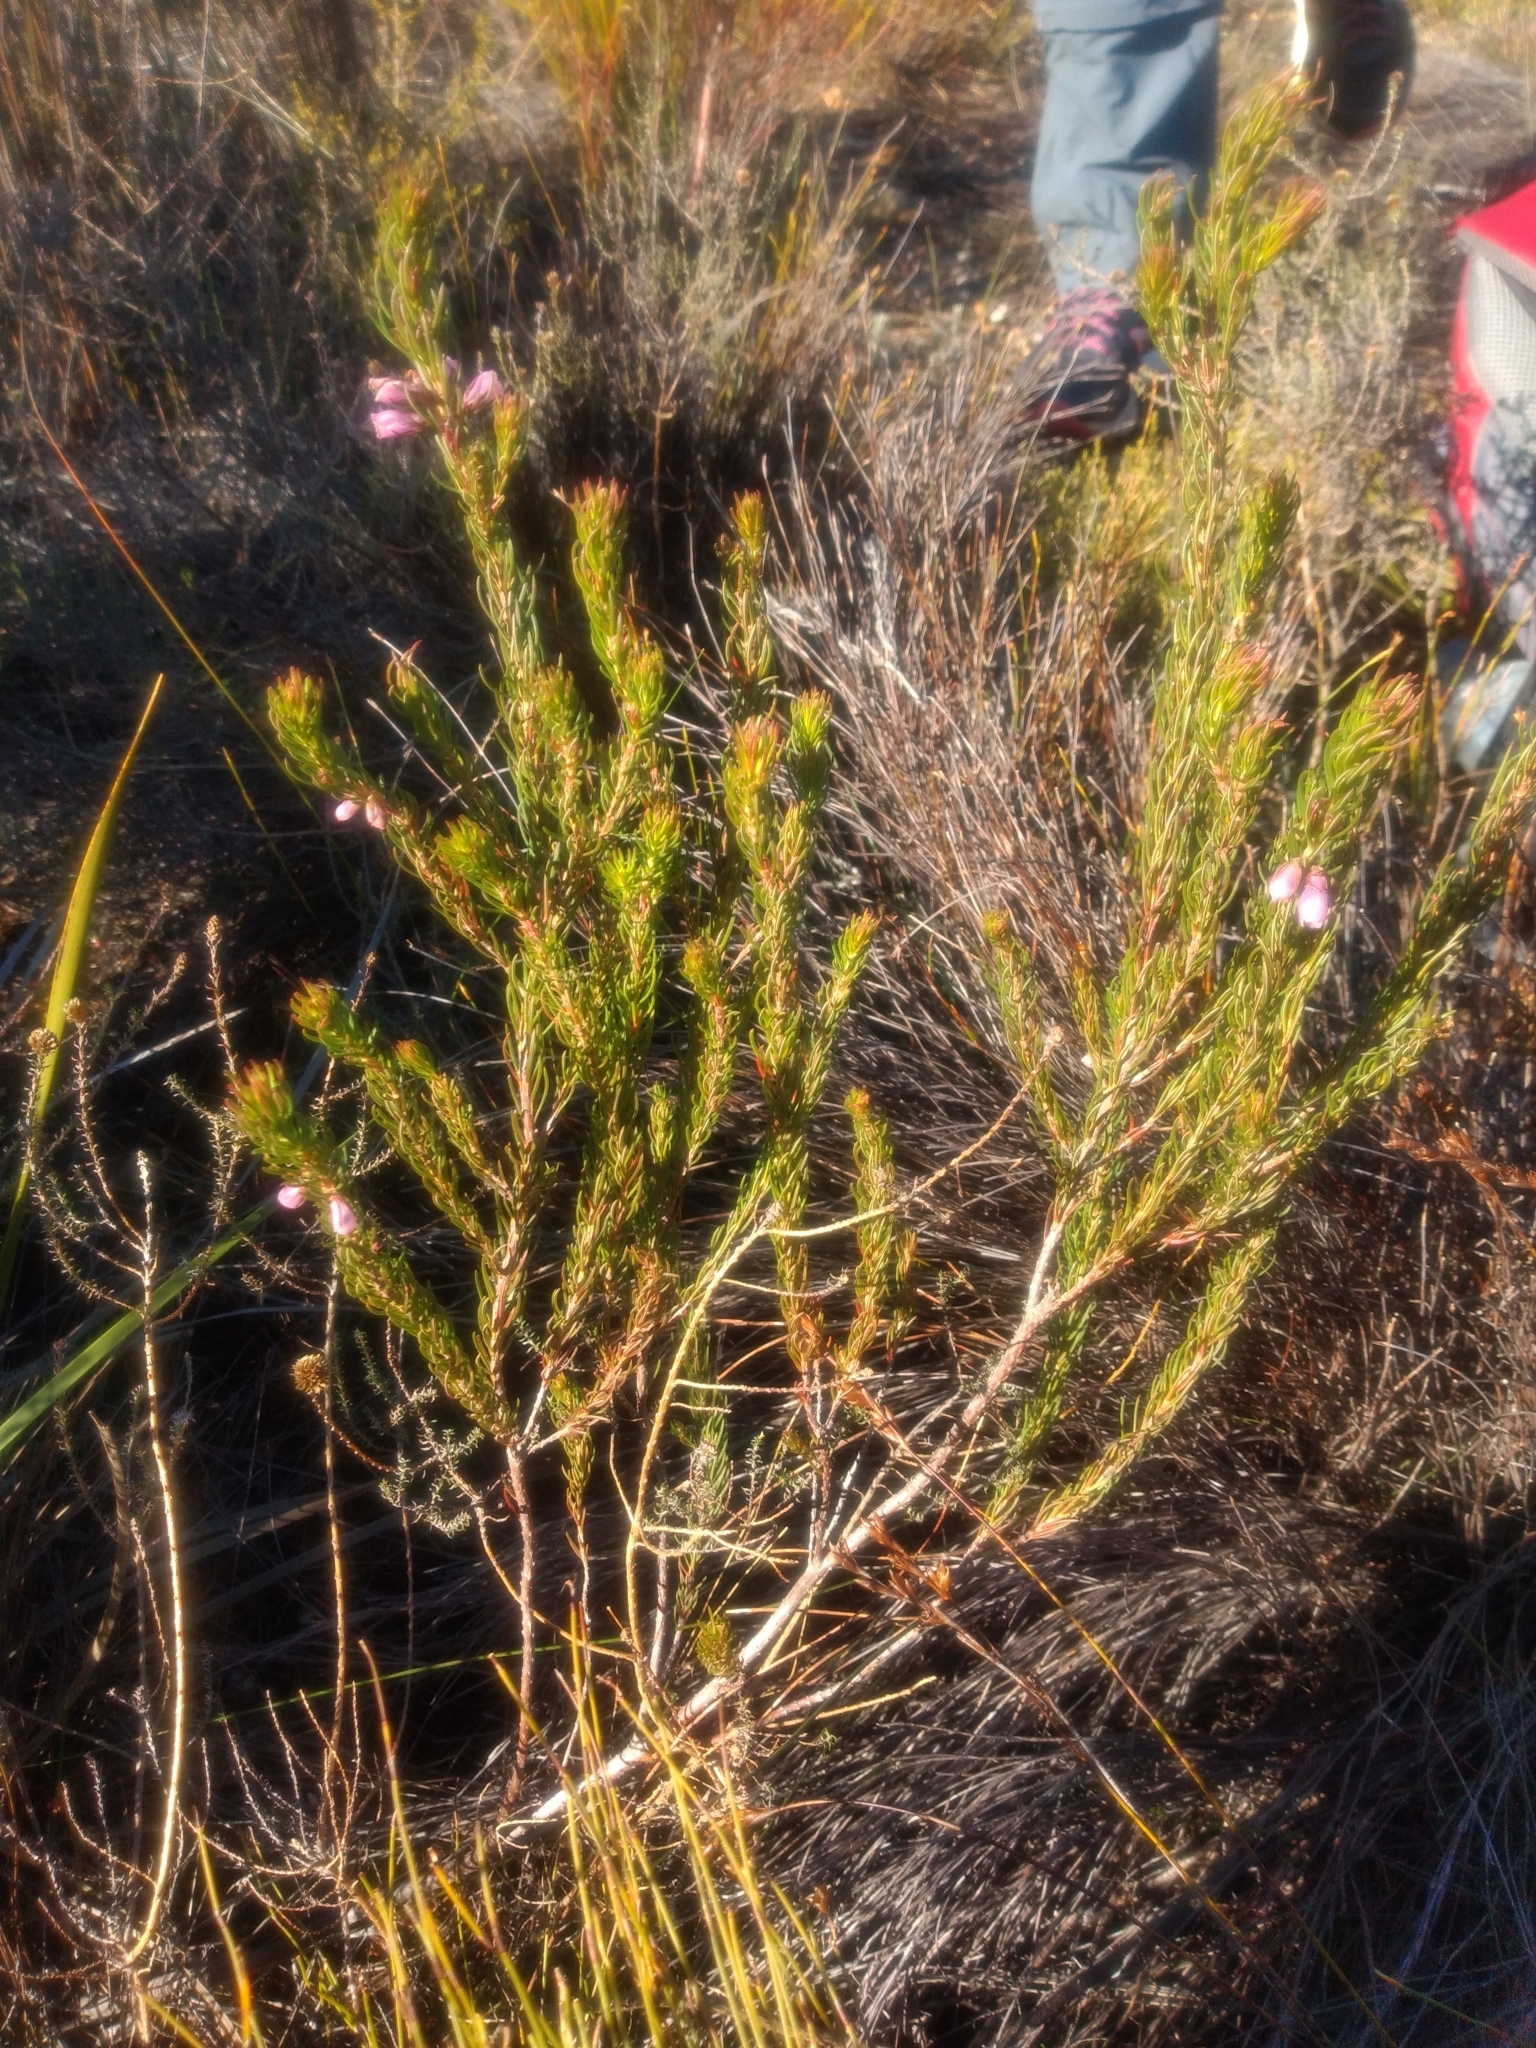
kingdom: Plantae
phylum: Tracheophyta
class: Magnoliopsida
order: Ericales
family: Ericaceae
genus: Erica
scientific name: Erica viscaria
